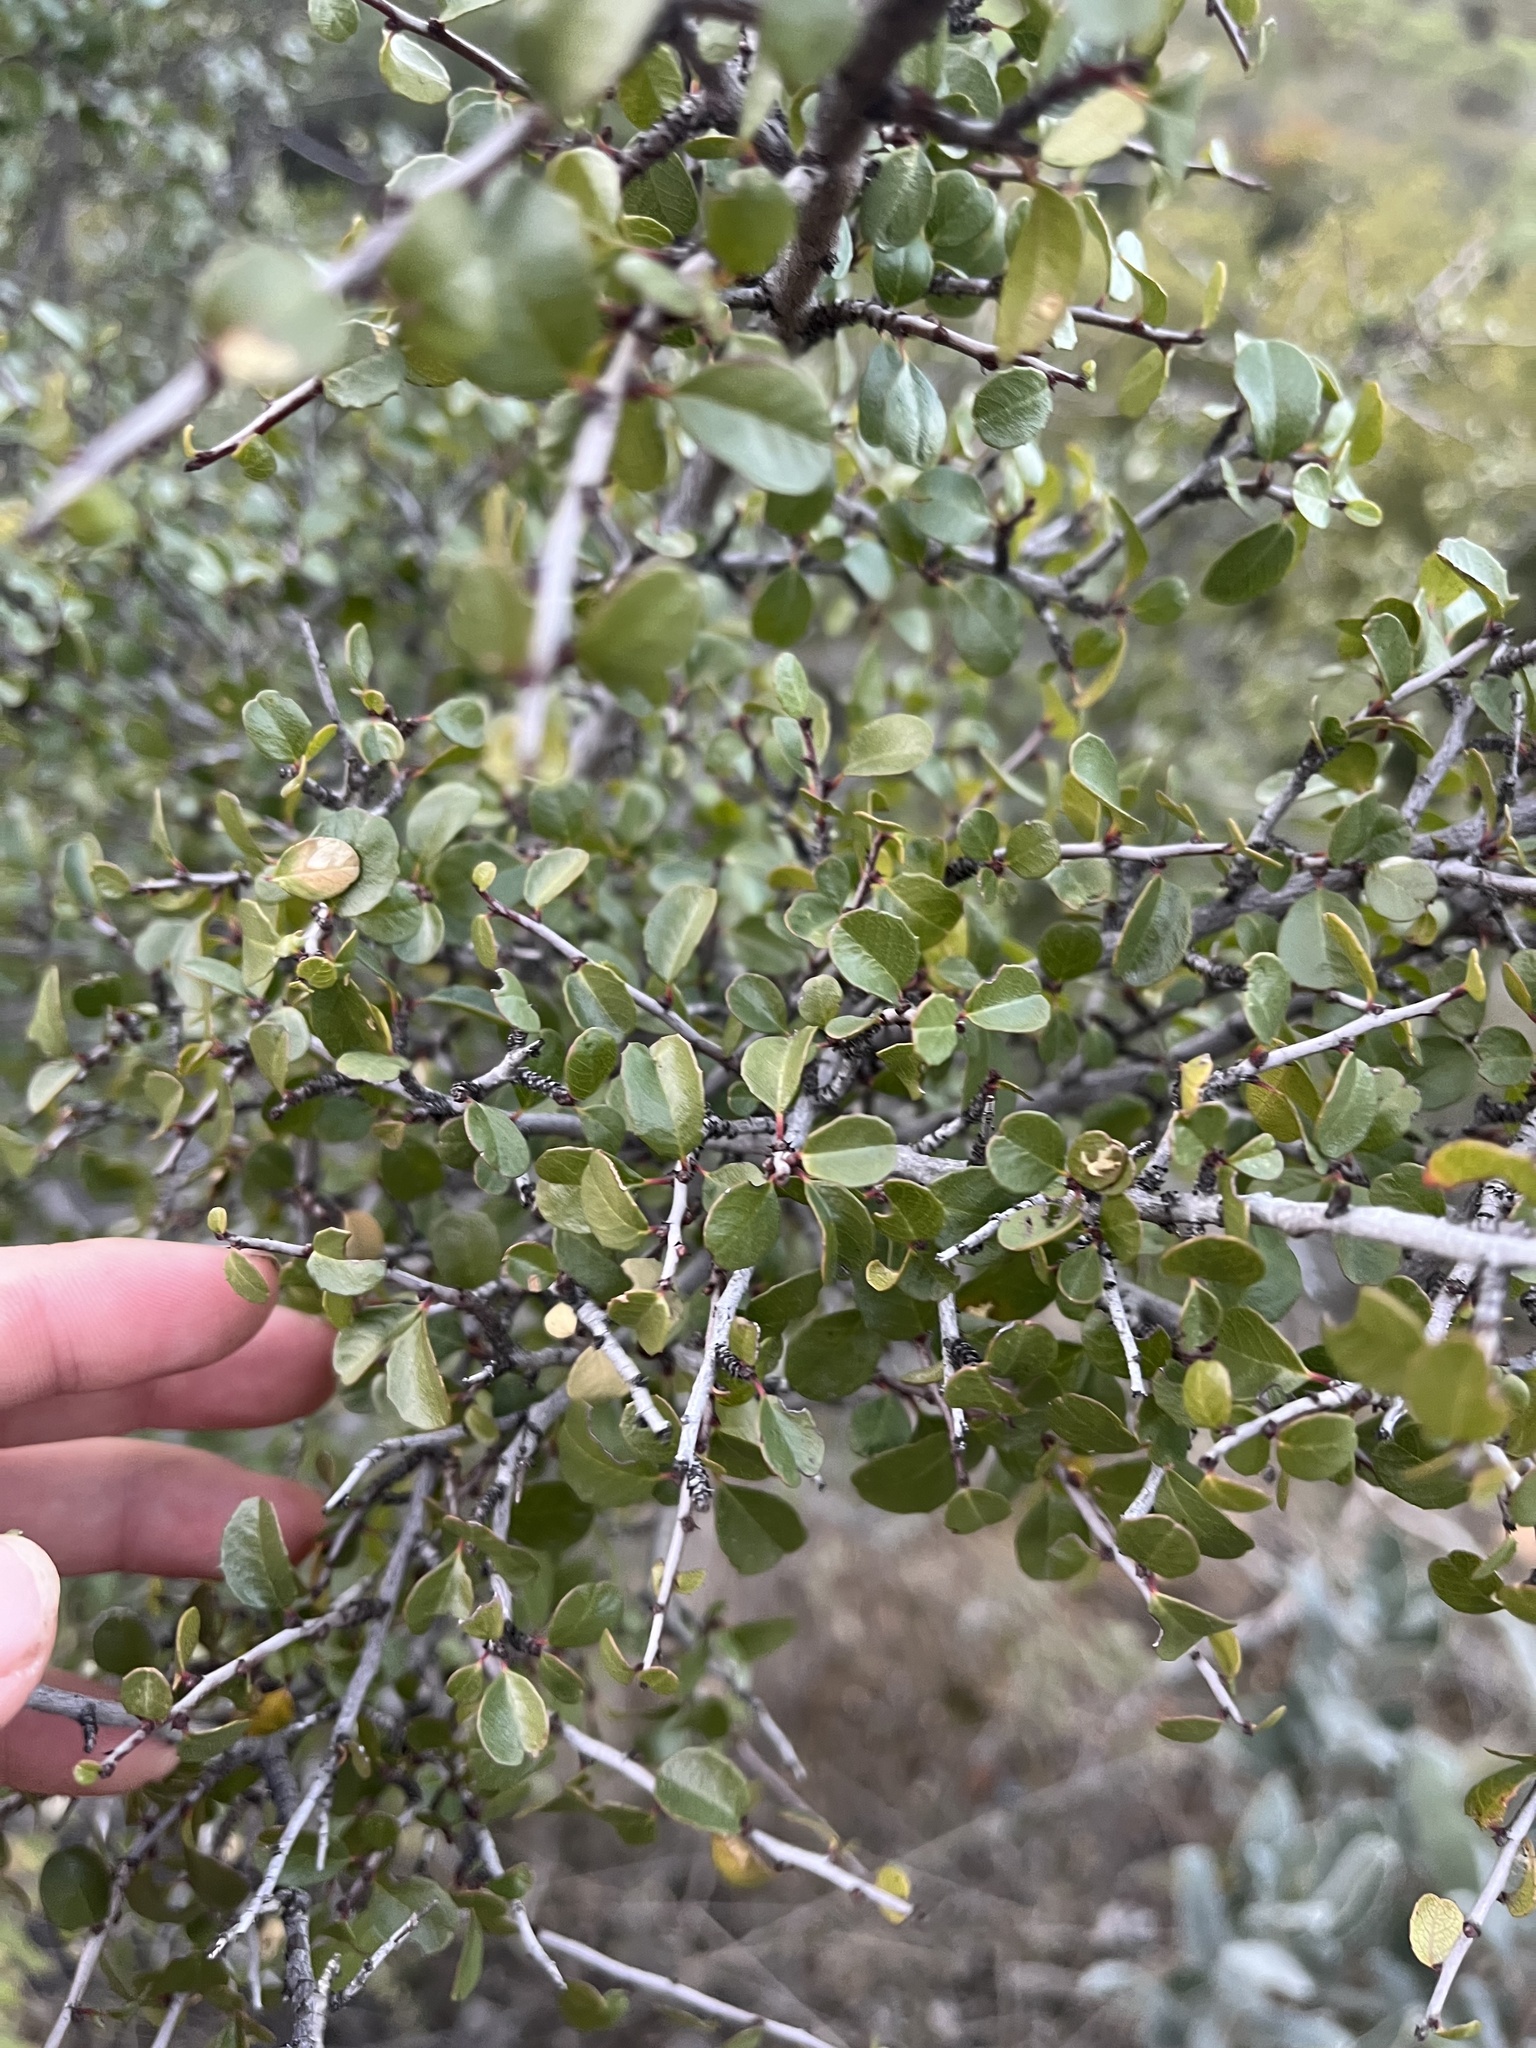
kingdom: Plantae
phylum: Tracheophyta
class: Magnoliopsida
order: Rosales
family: Rhamnaceae
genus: Endotropis
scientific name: Endotropis crocea
